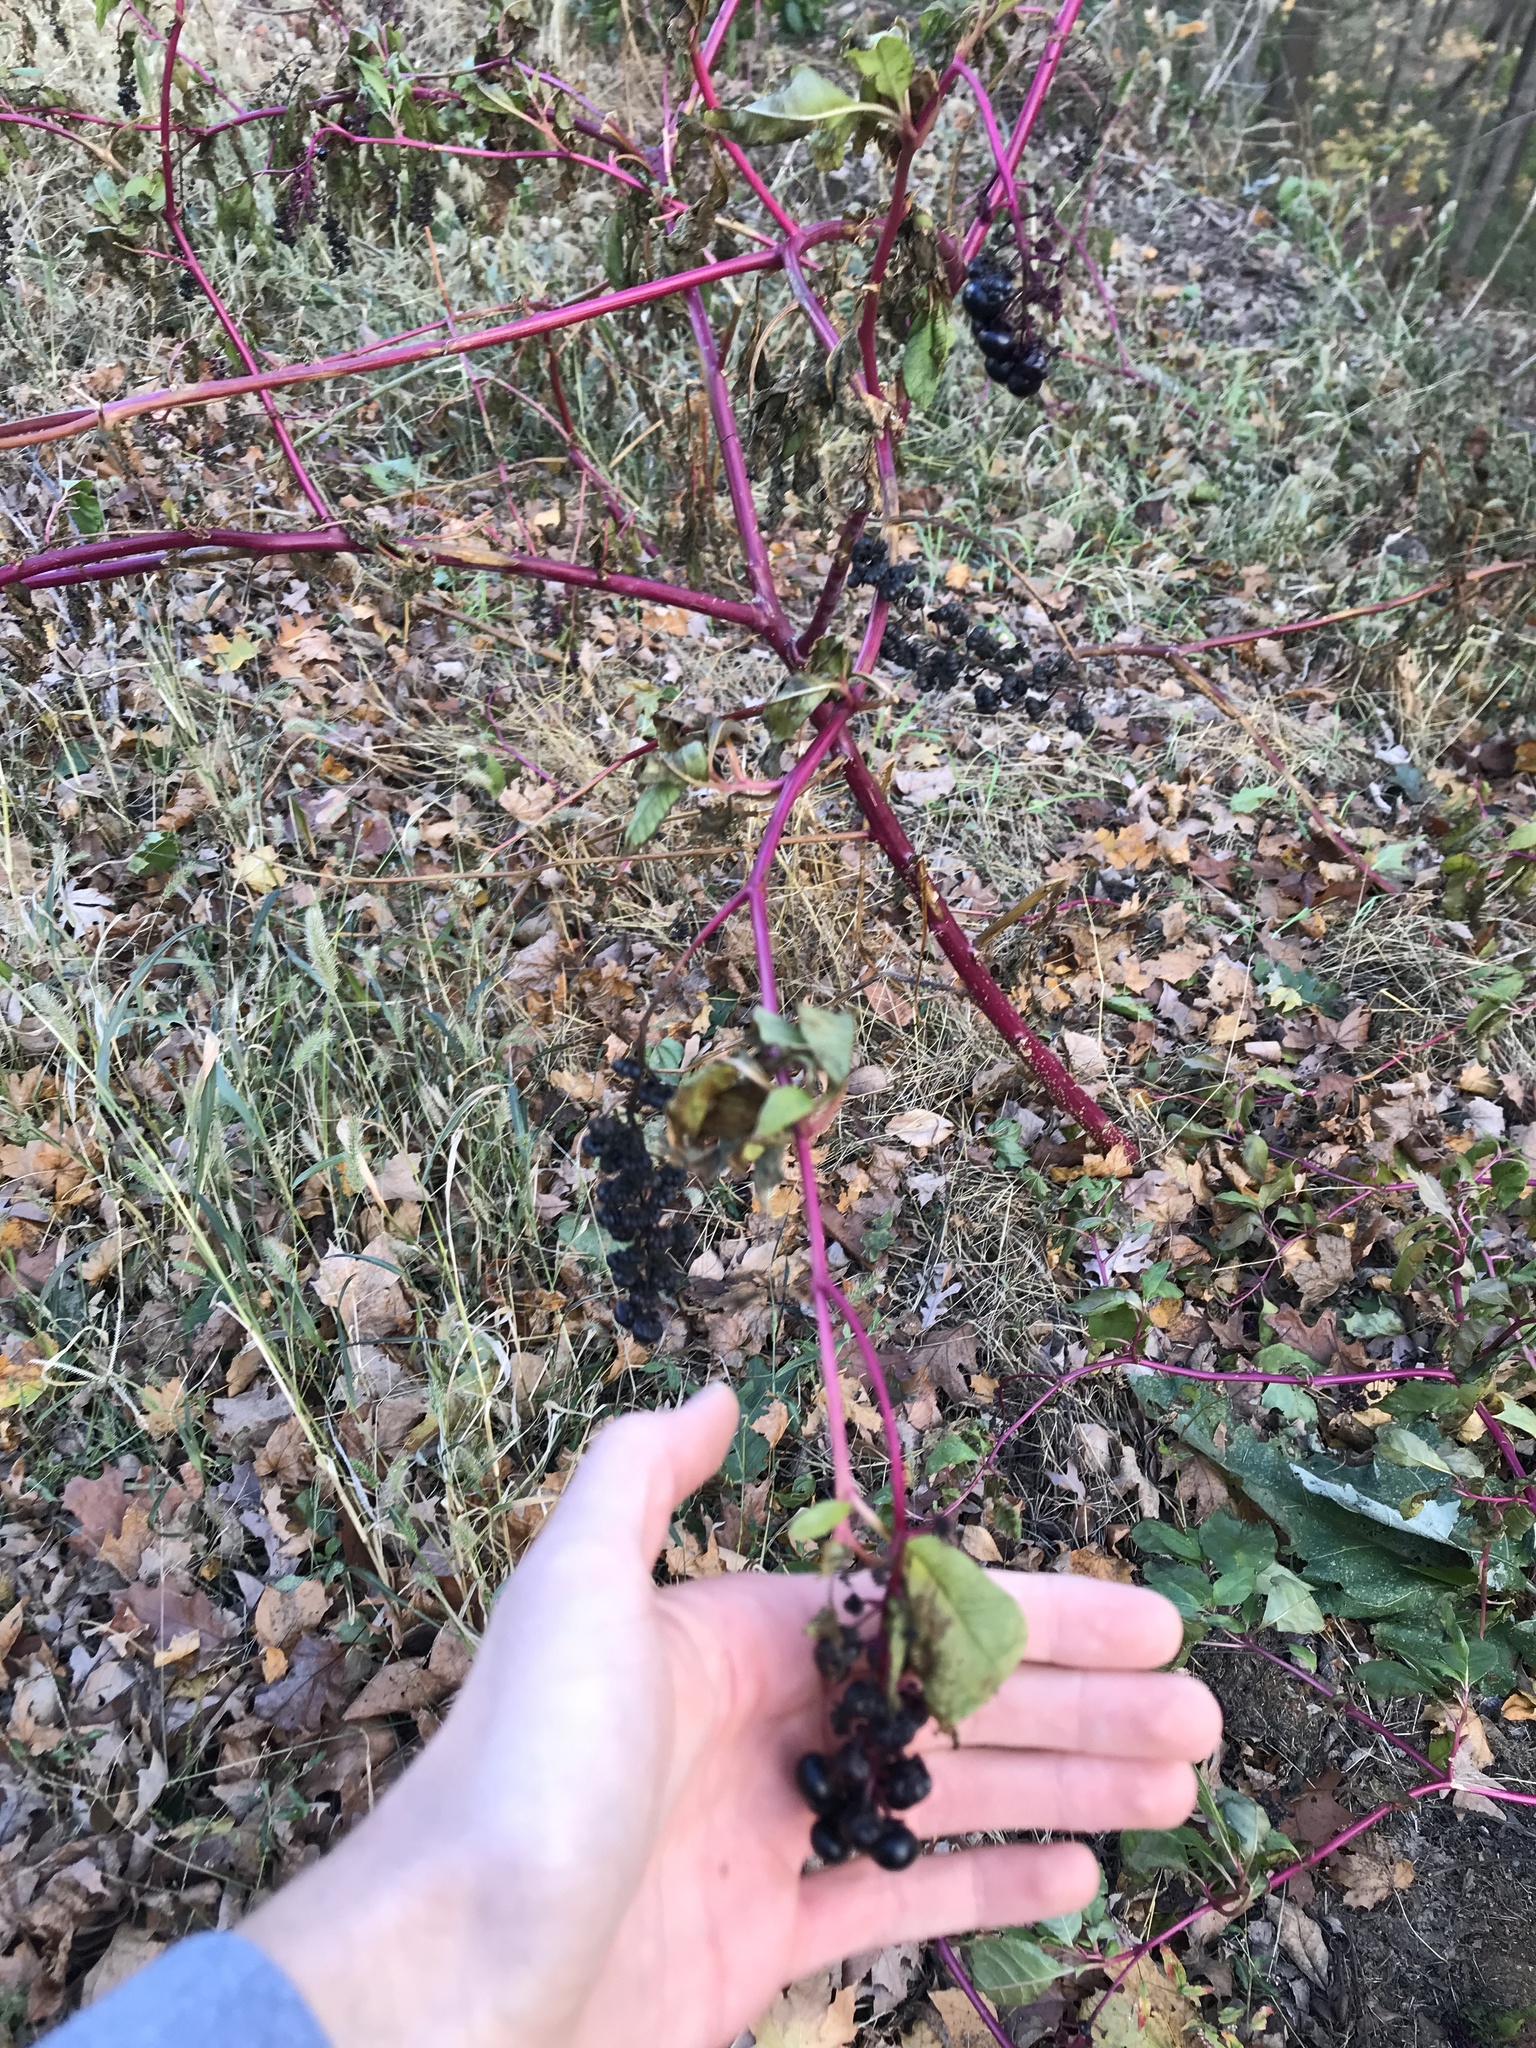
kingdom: Plantae
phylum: Tracheophyta
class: Magnoliopsida
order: Caryophyllales
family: Phytolaccaceae
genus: Phytolacca
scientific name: Phytolacca americana
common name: American pokeweed
